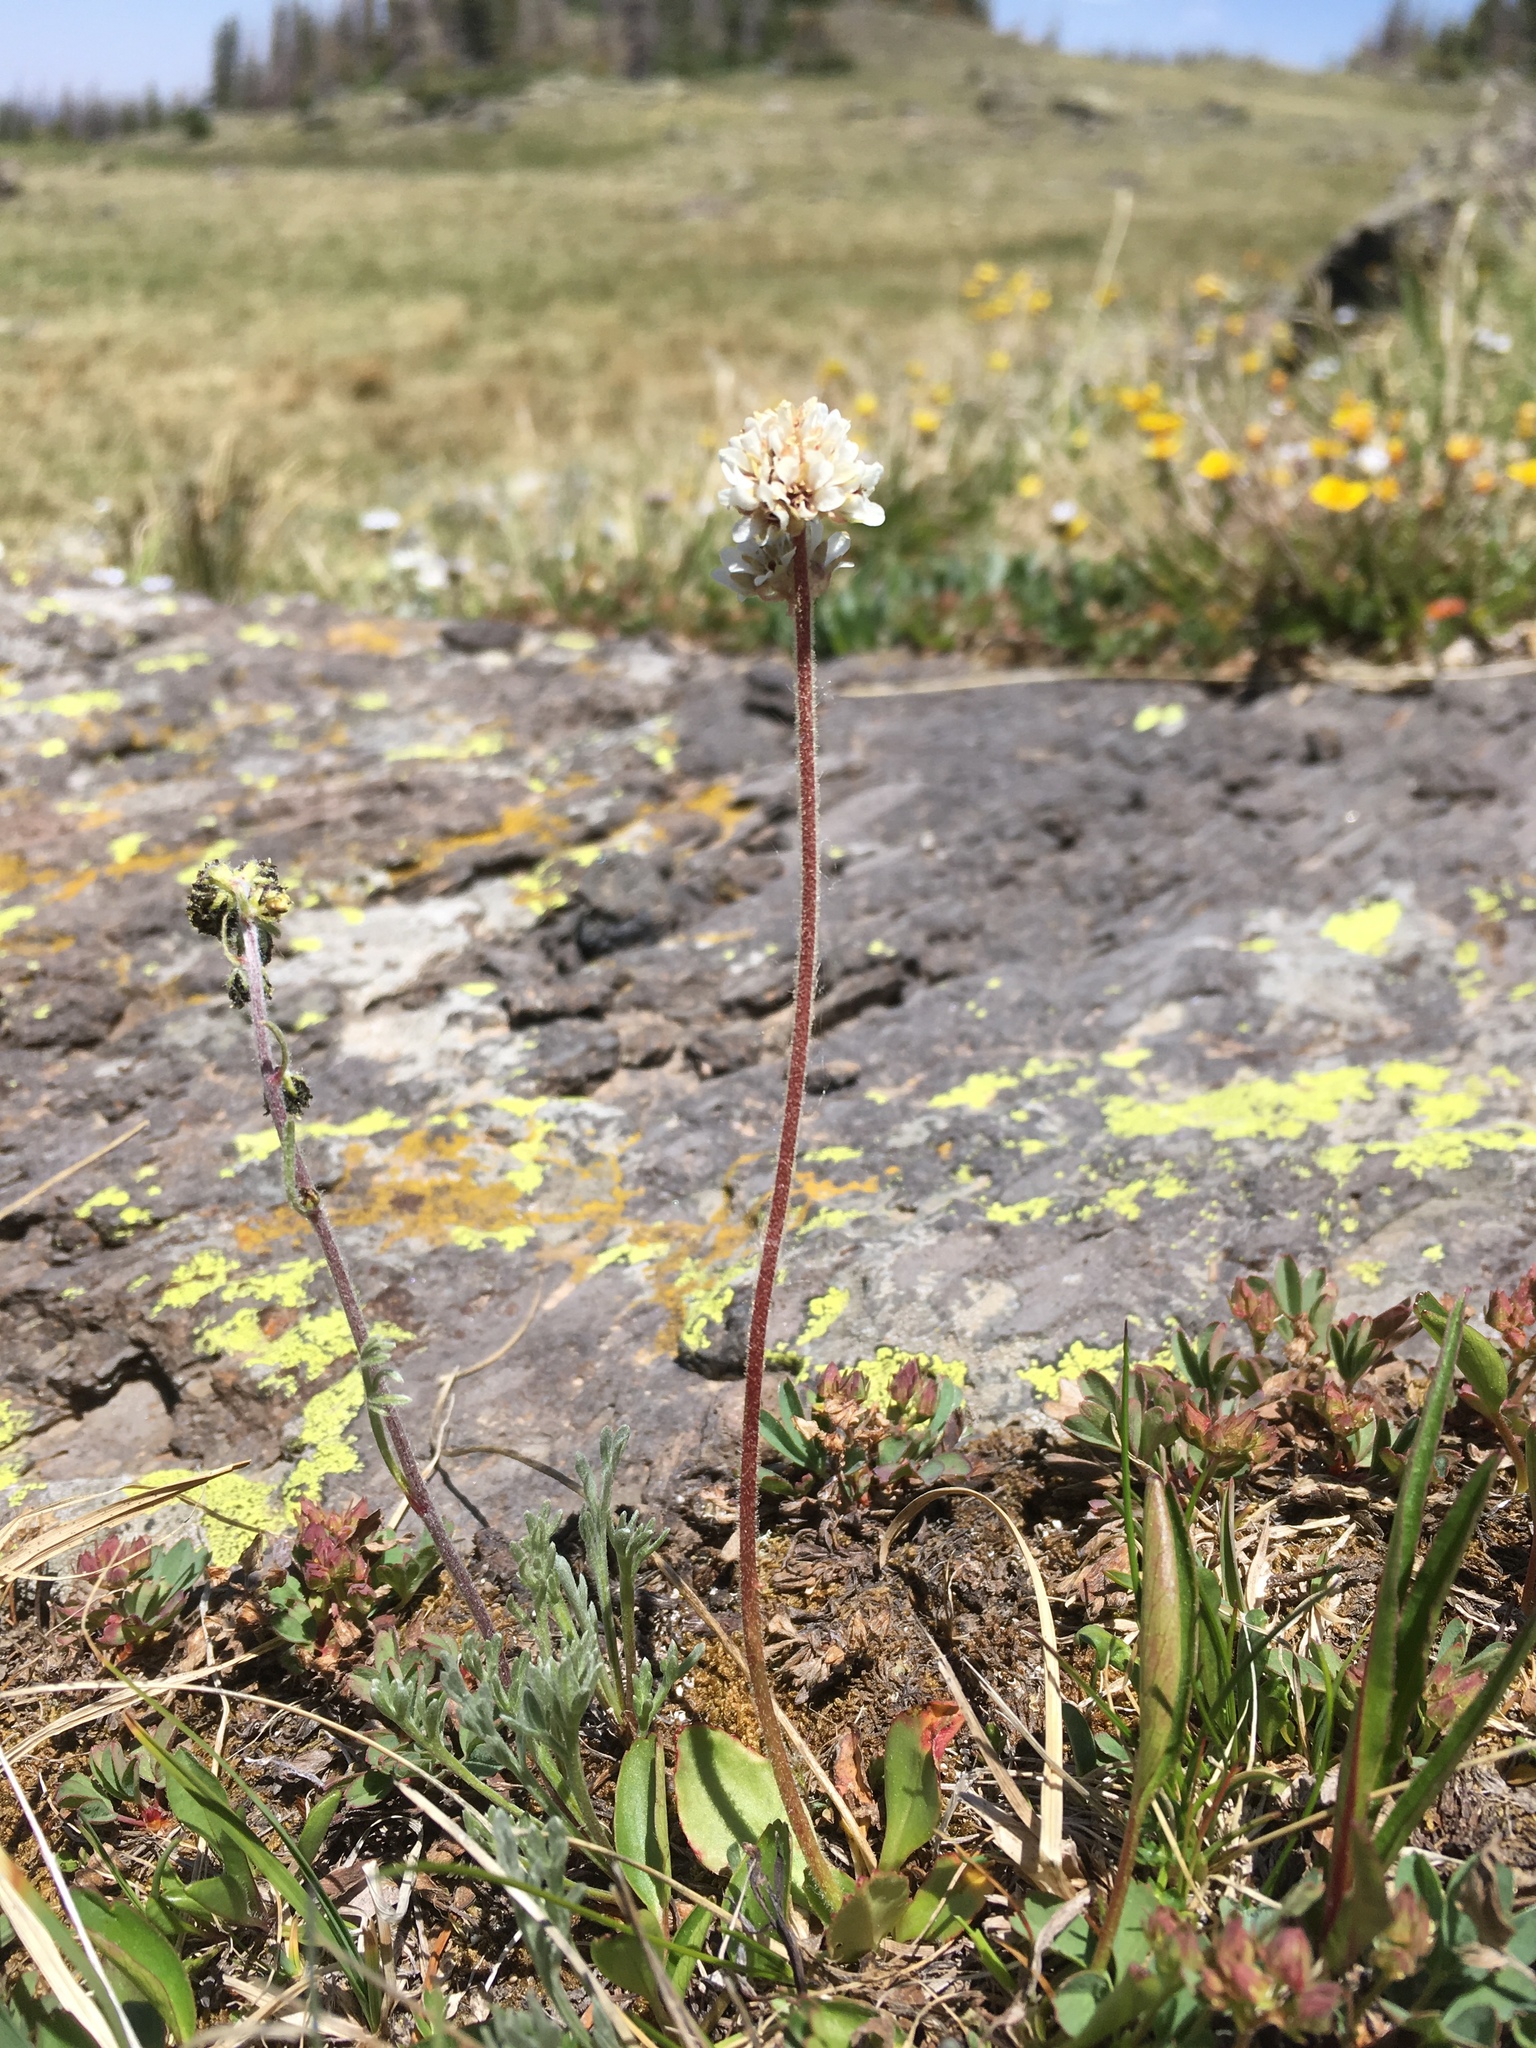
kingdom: Plantae
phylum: Tracheophyta
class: Magnoliopsida
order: Saxifragales
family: Saxifragaceae
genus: Micranthes
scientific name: Micranthes rhomboidea
